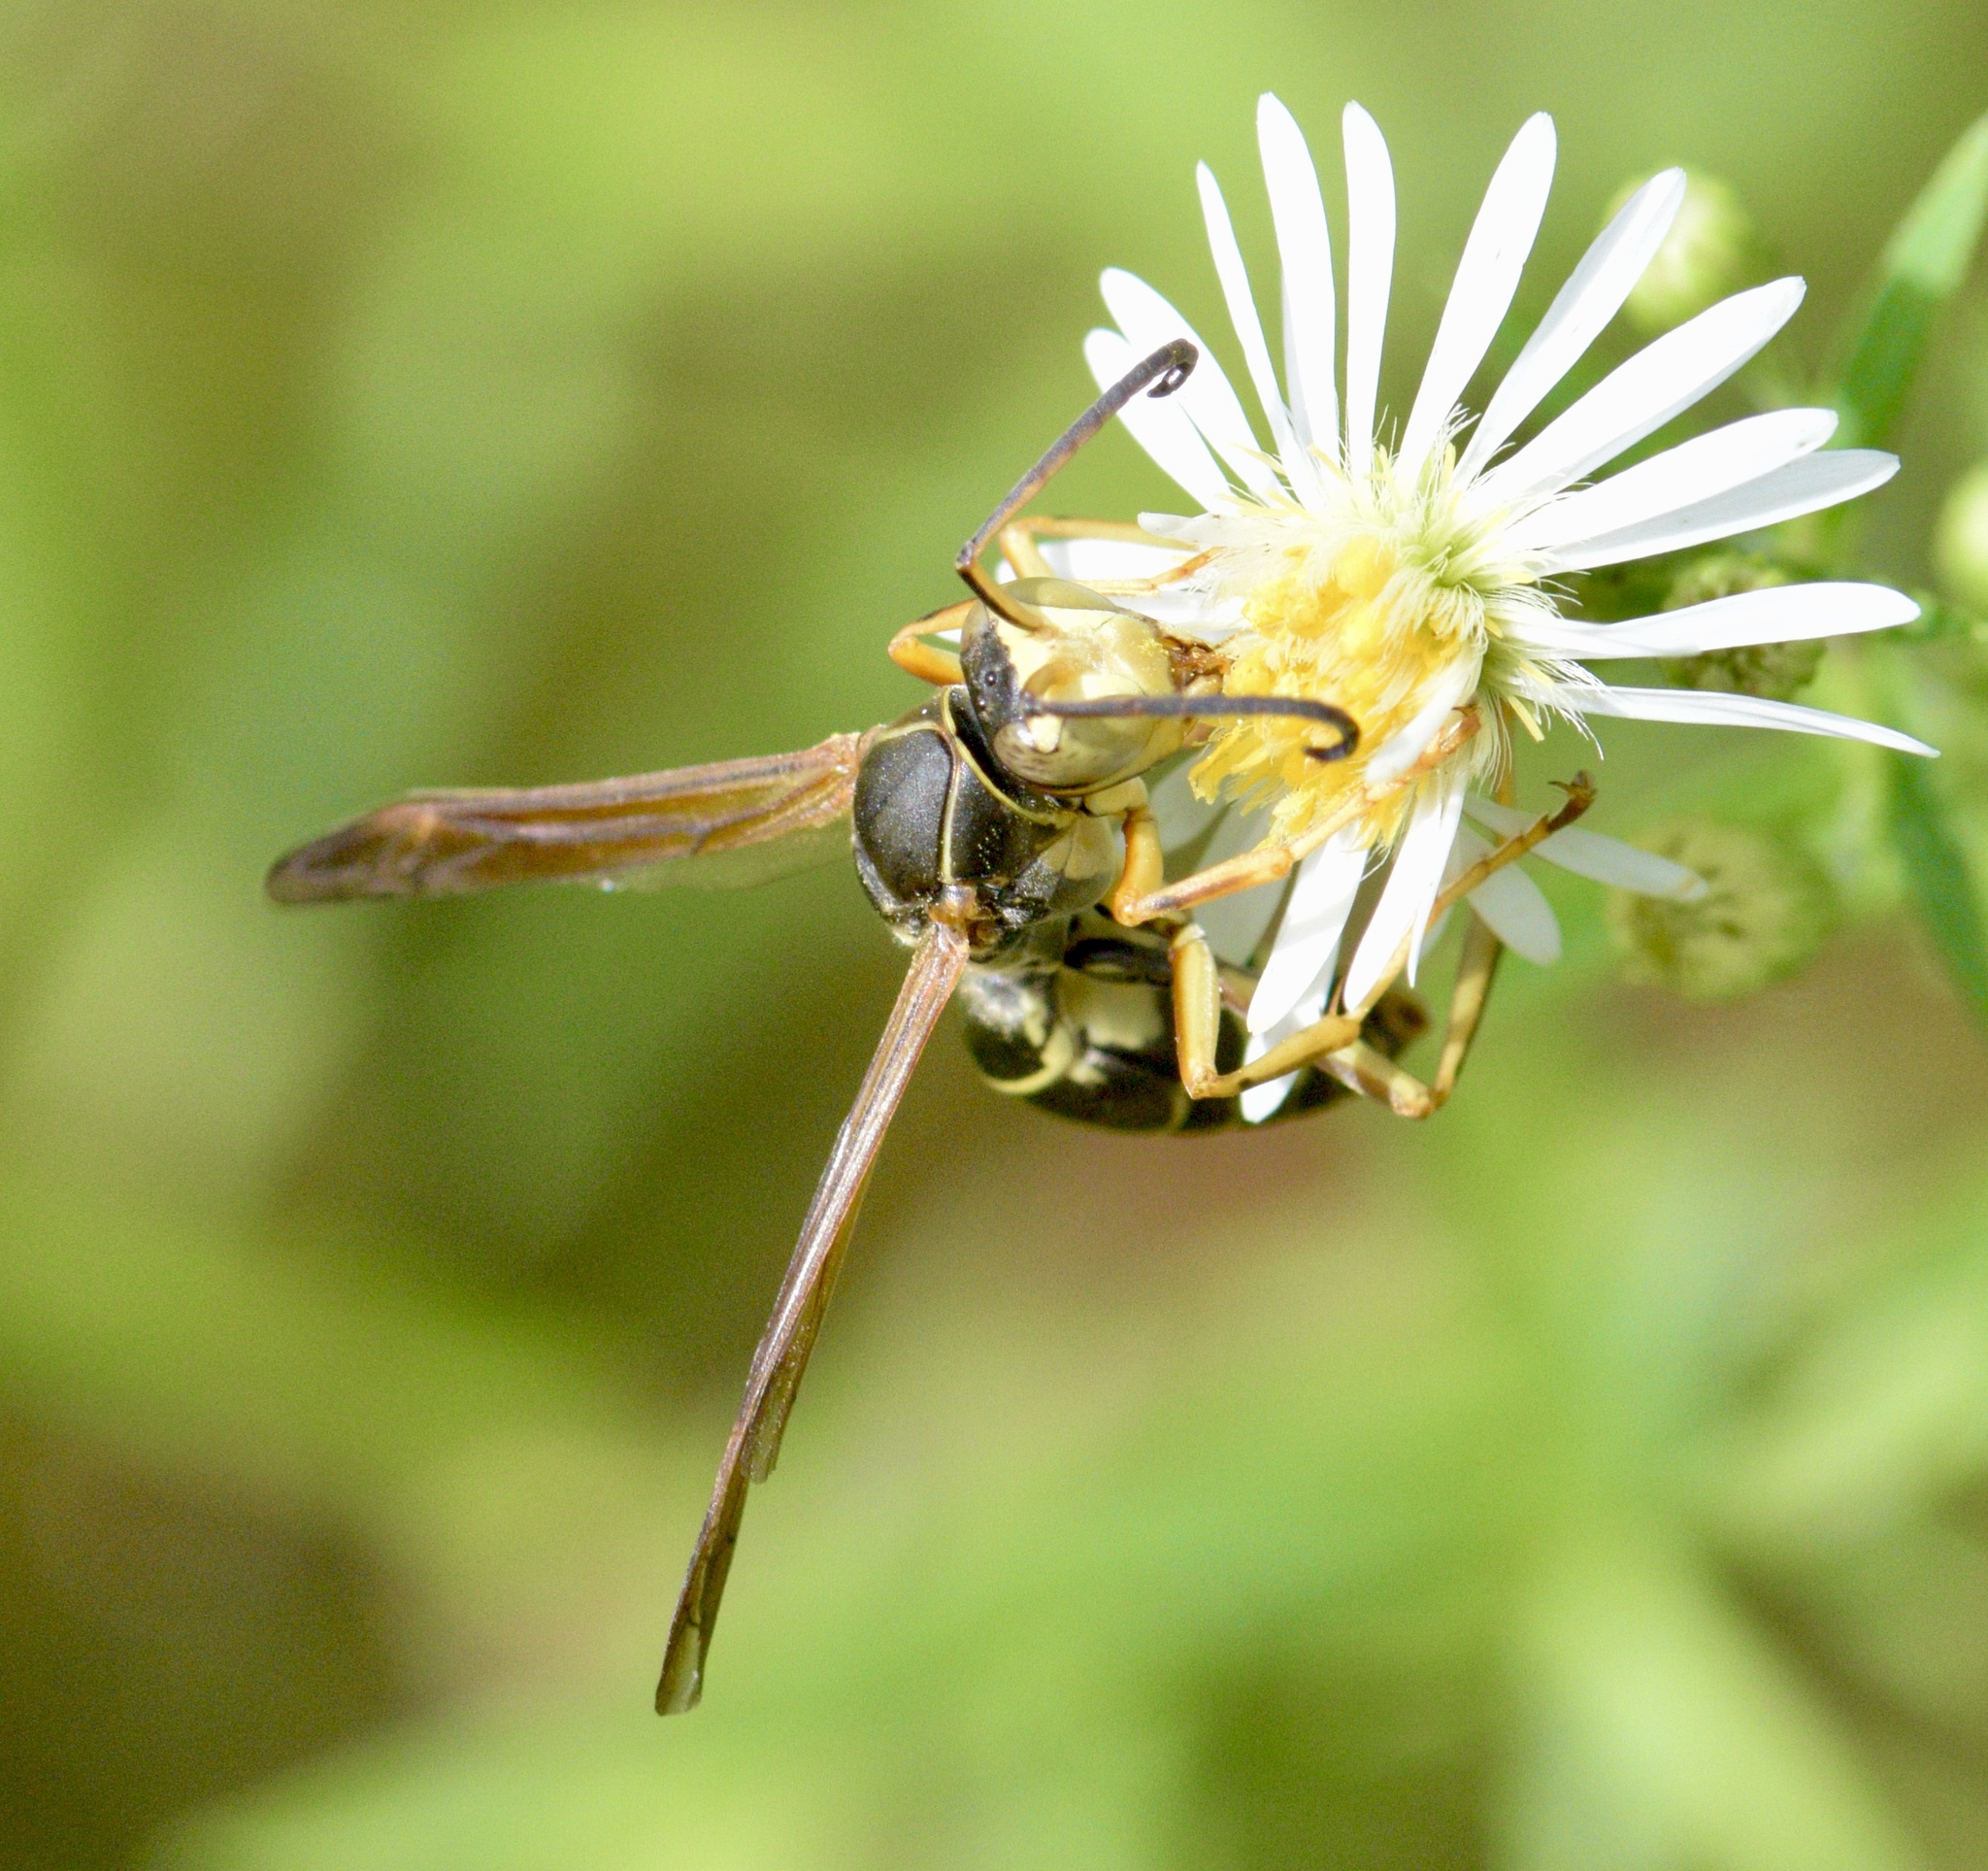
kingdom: Animalia
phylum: Arthropoda
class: Insecta
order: Hymenoptera
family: Eumenidae
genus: Polistes
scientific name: Polistes fuscatus
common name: Dark paper wasp
